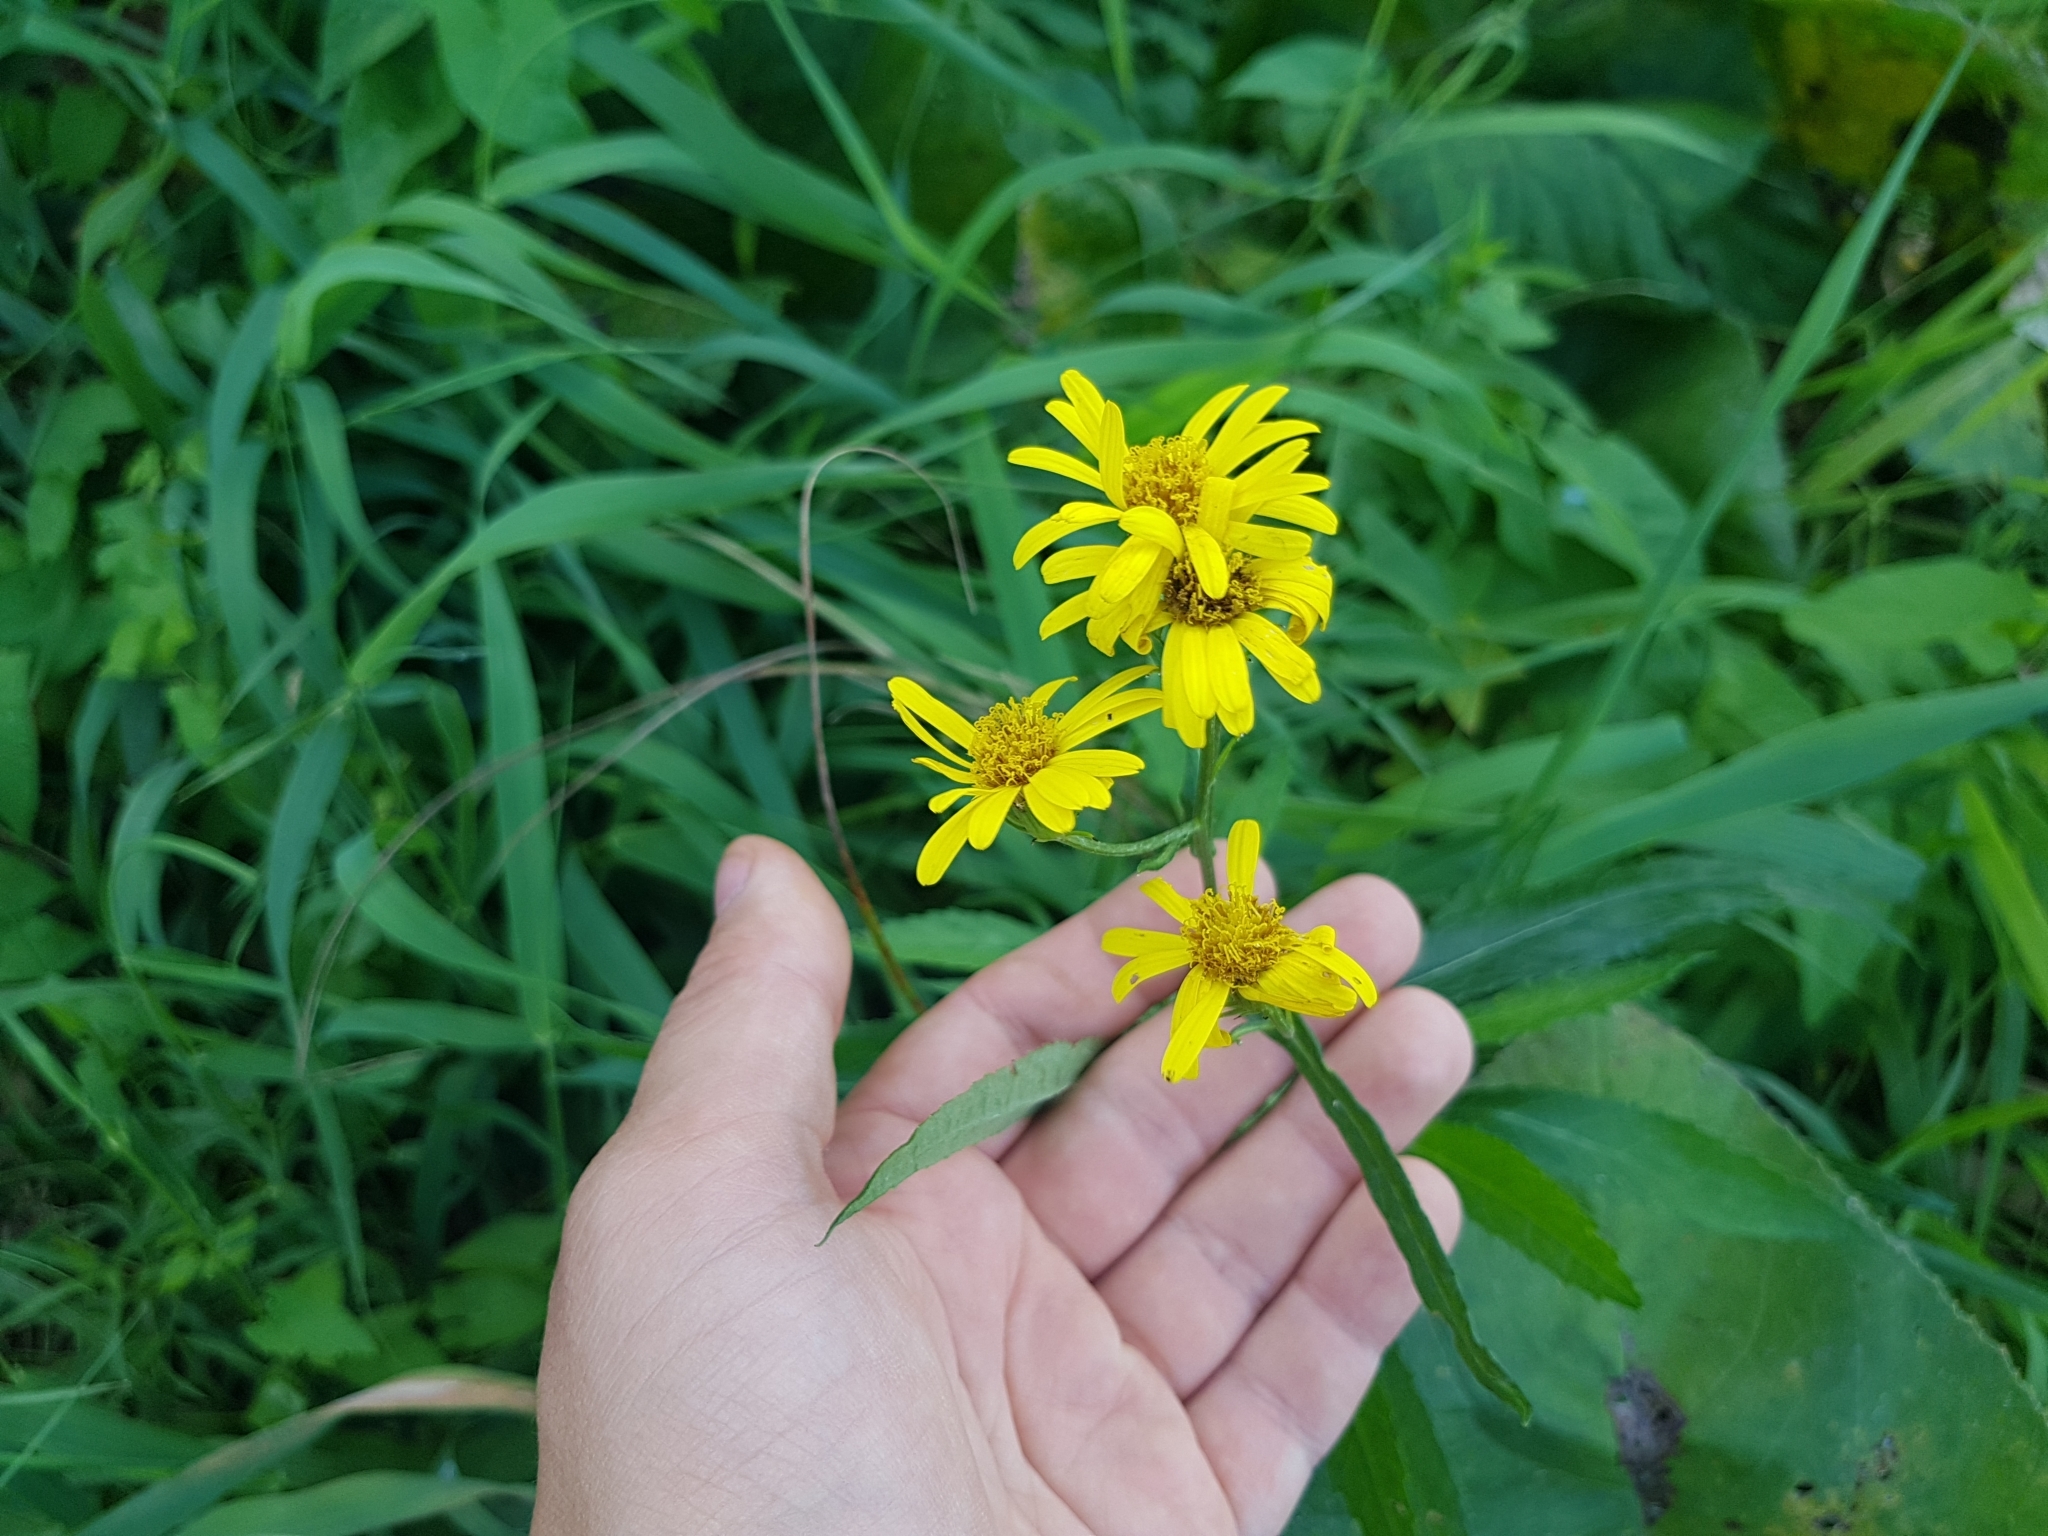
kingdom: Plantae
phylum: Tracheophyta
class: Magnoliopsida
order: Asterales
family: Asteraceae
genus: Jacobaea
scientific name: Jacobaea paludosa
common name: Fen ragwort
